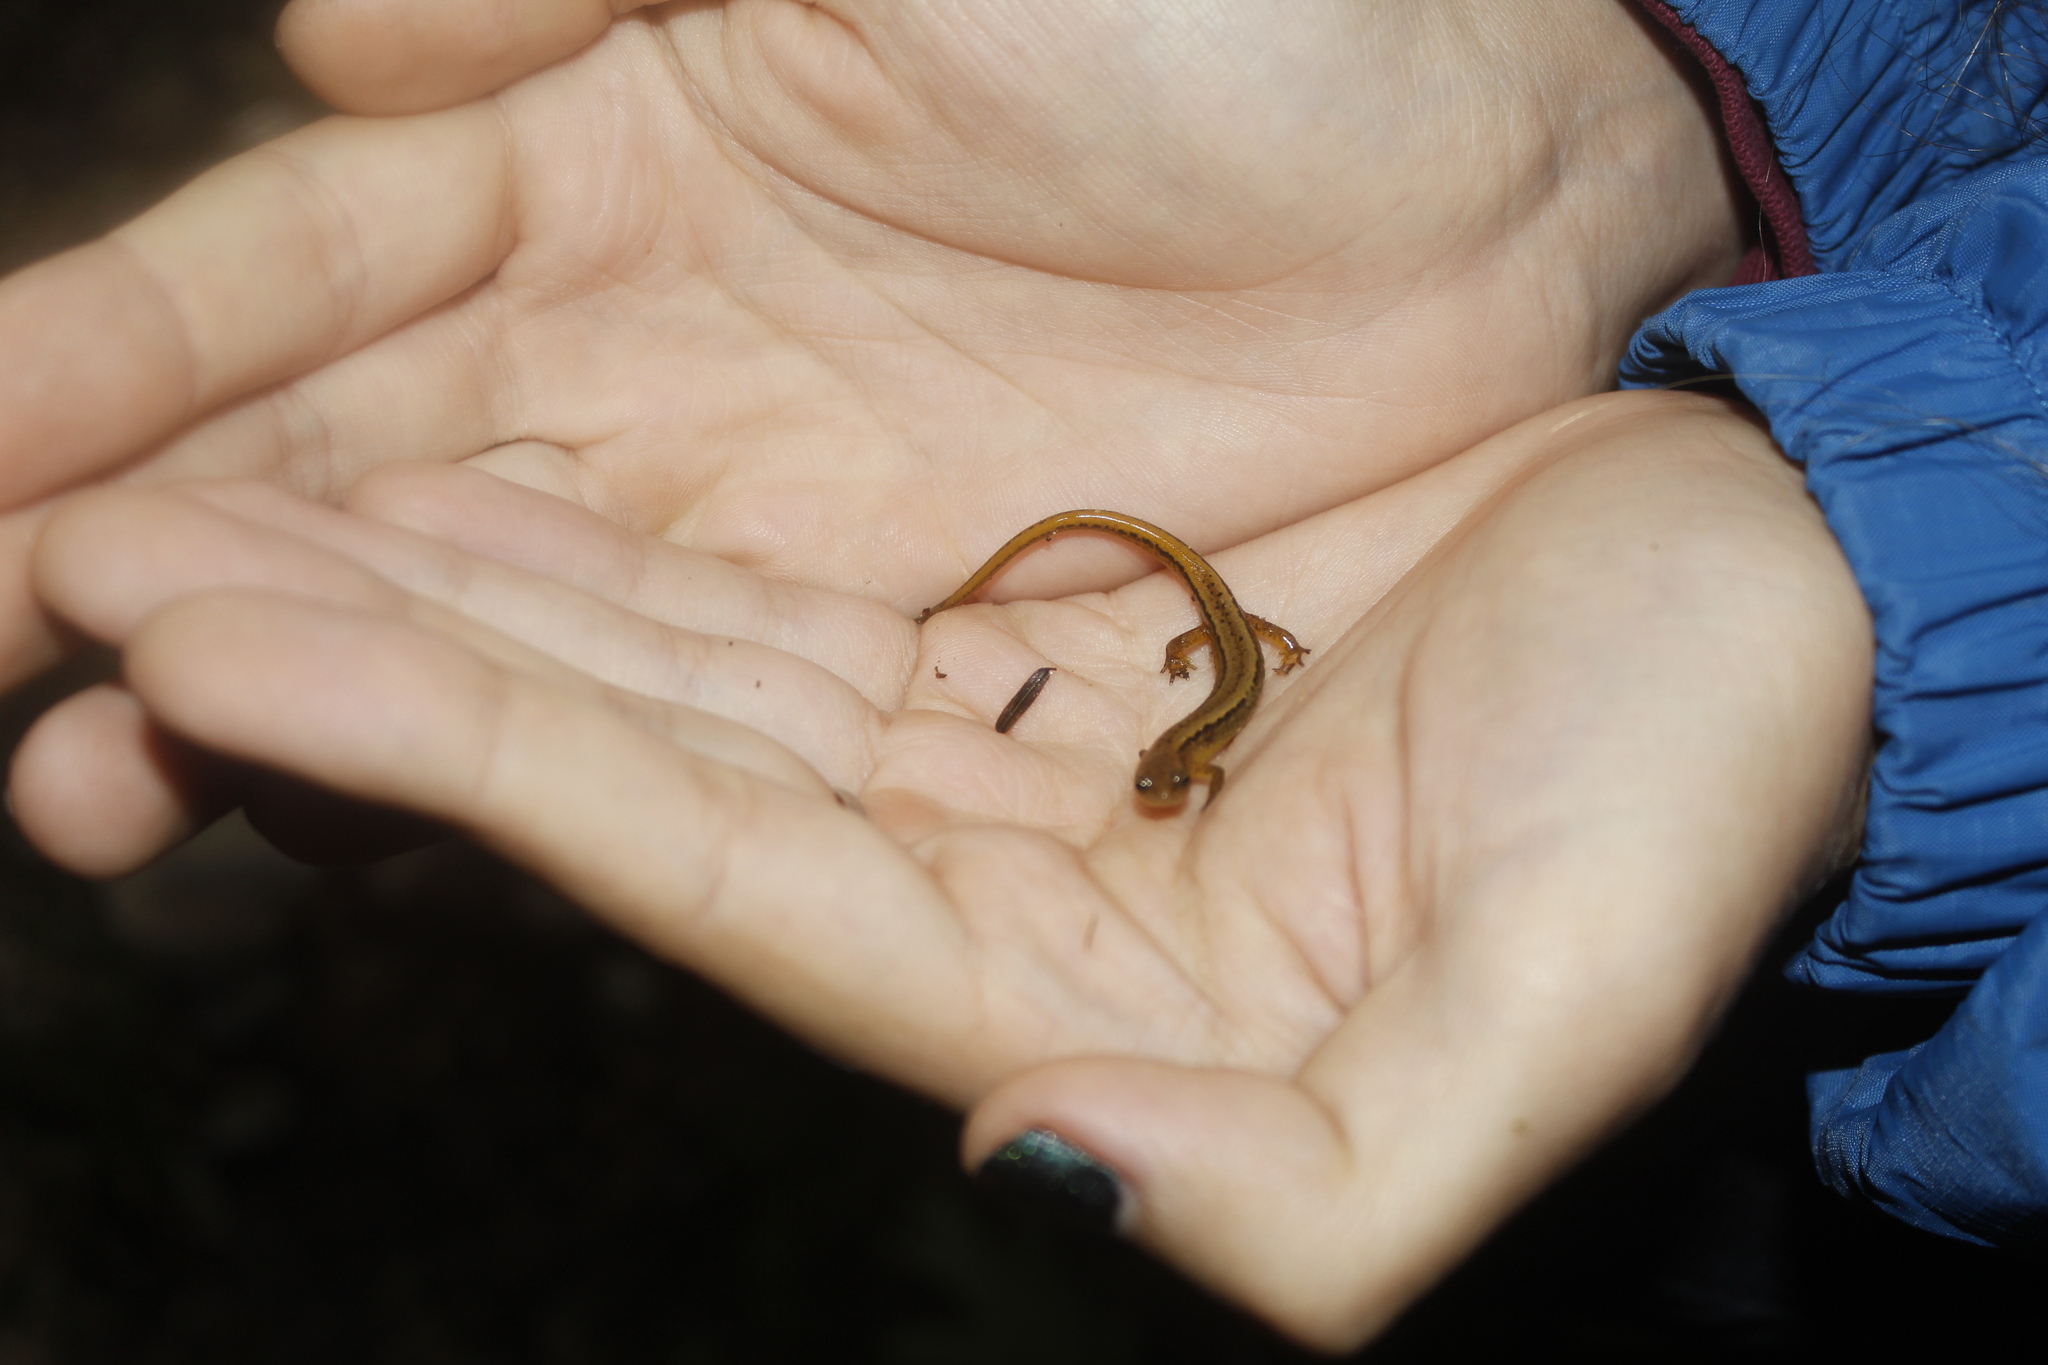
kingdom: Animalia
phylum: Chordata
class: Amphibia
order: Caudata
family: Plethodontidae
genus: Eurycea
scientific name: Eurycea bislineata
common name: Northern two-lined salamander
